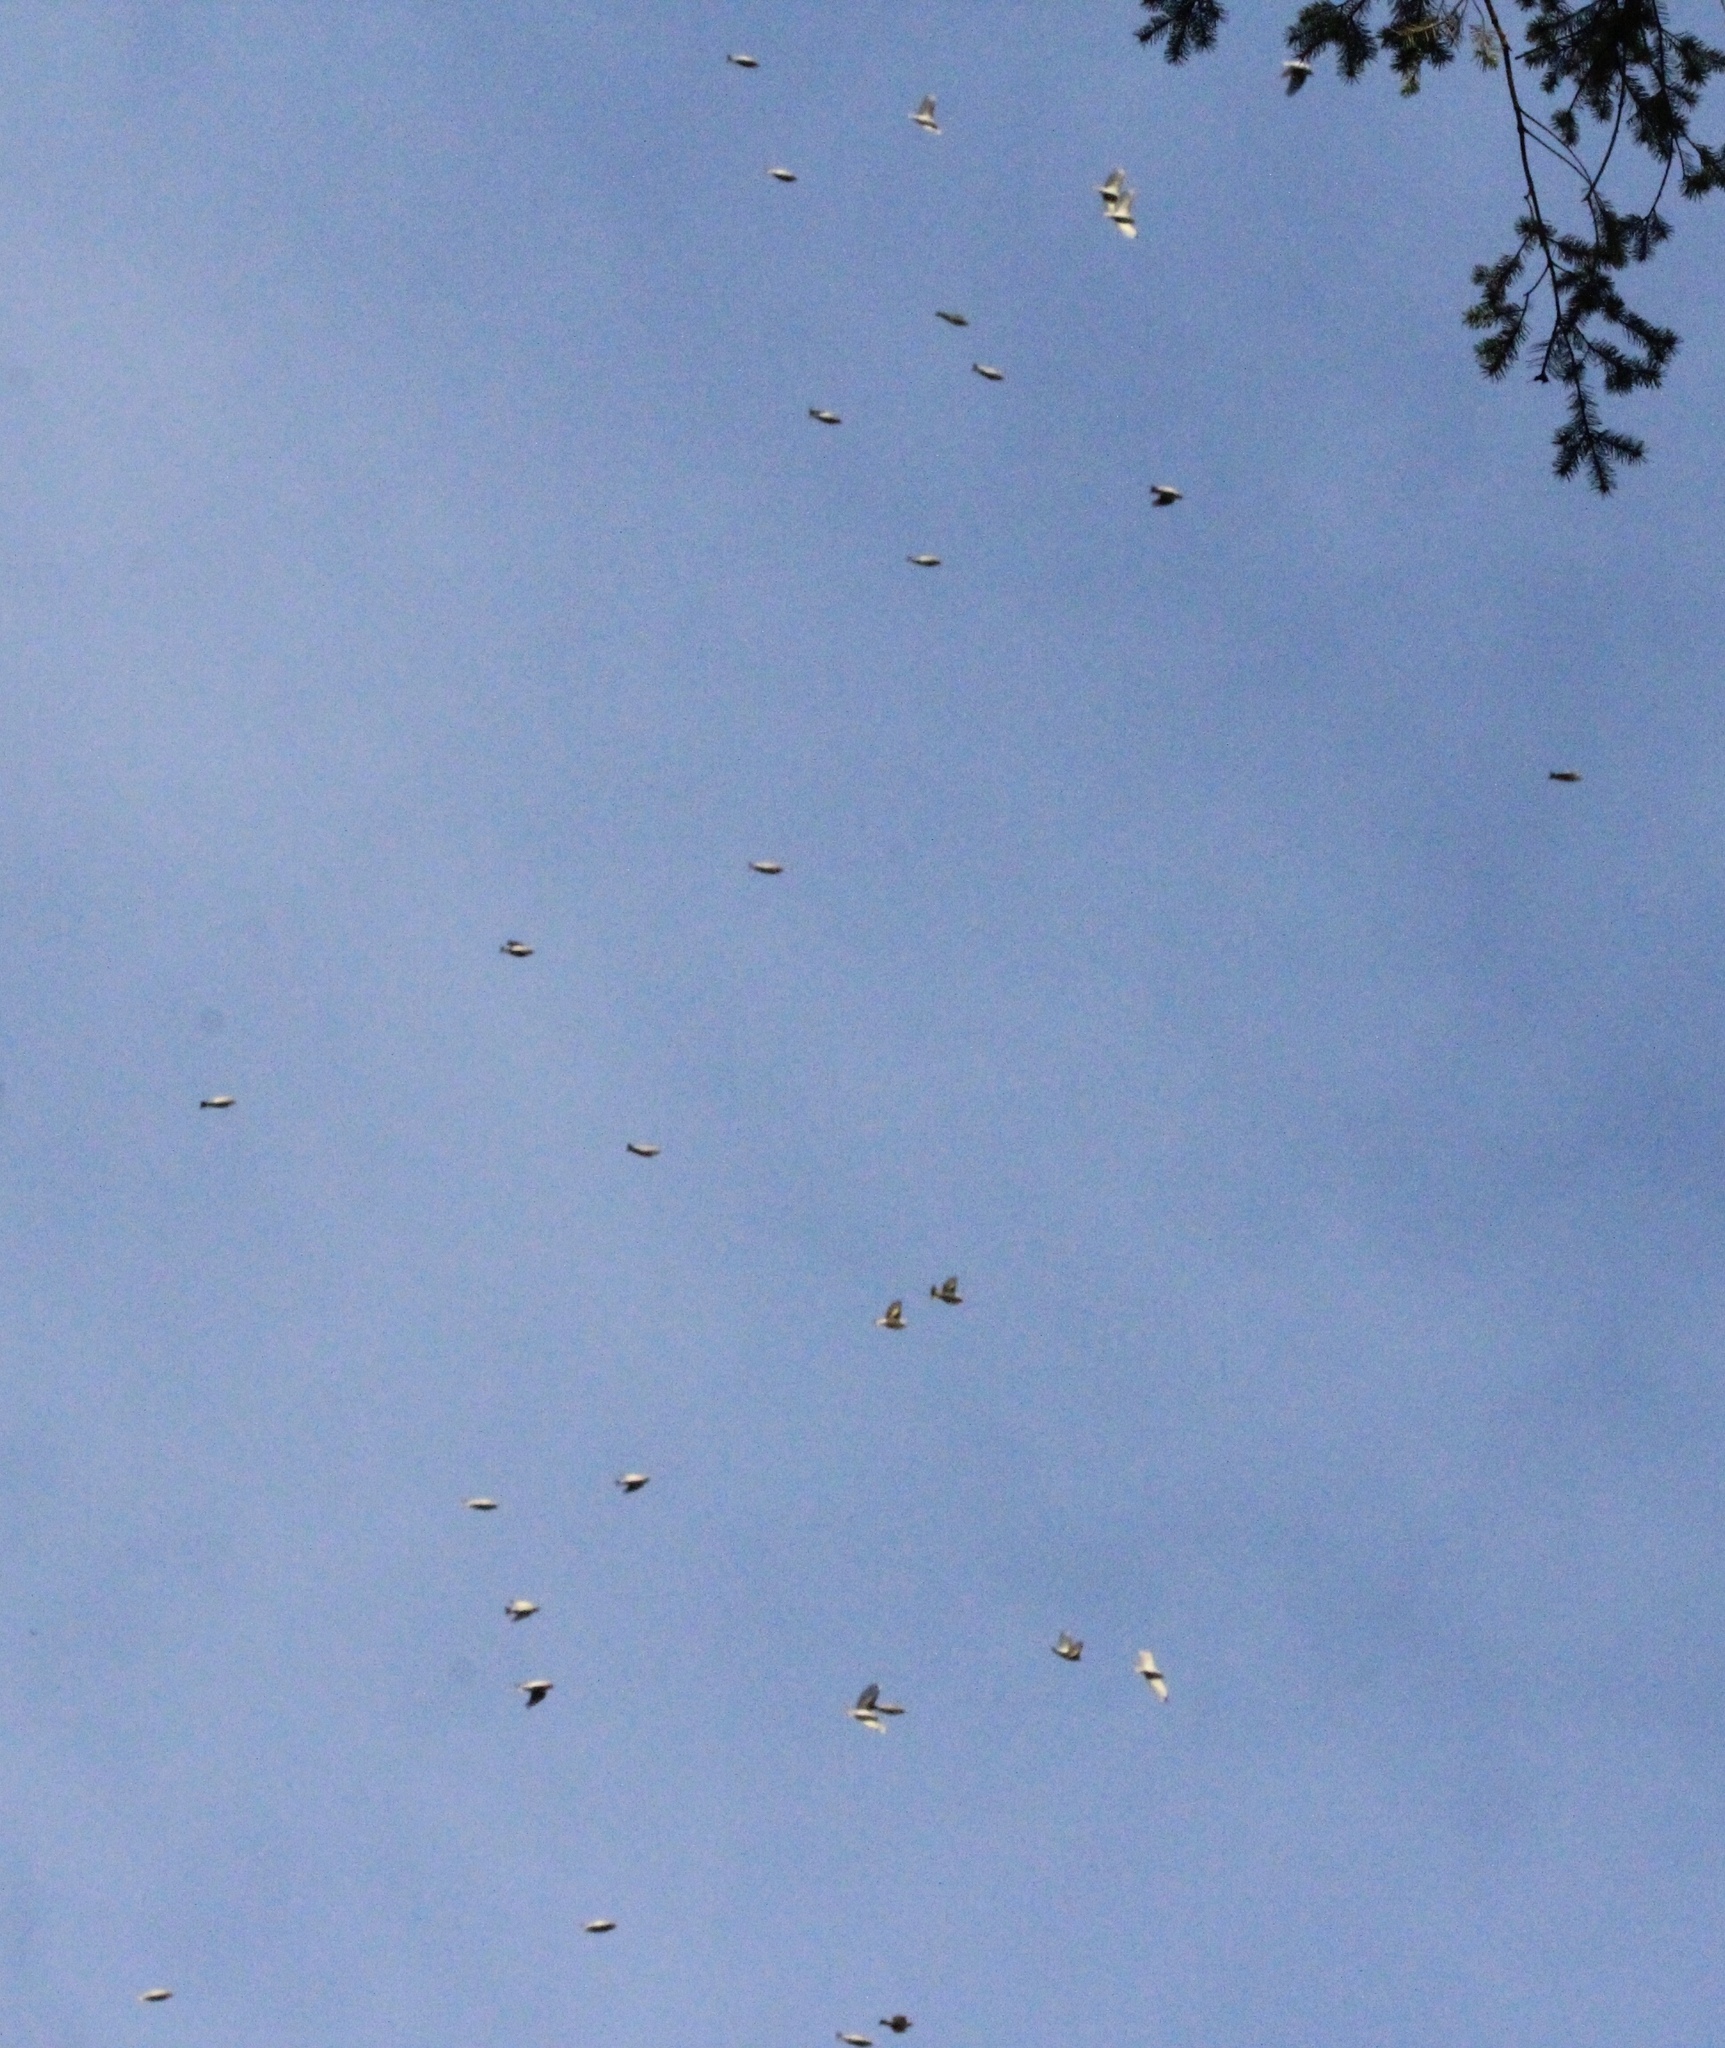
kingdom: Animalia
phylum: Chordata
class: Aves
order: Passeriformes
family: Fringillidae
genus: Spinus
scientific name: Spinus pinus
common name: Pine siskin
